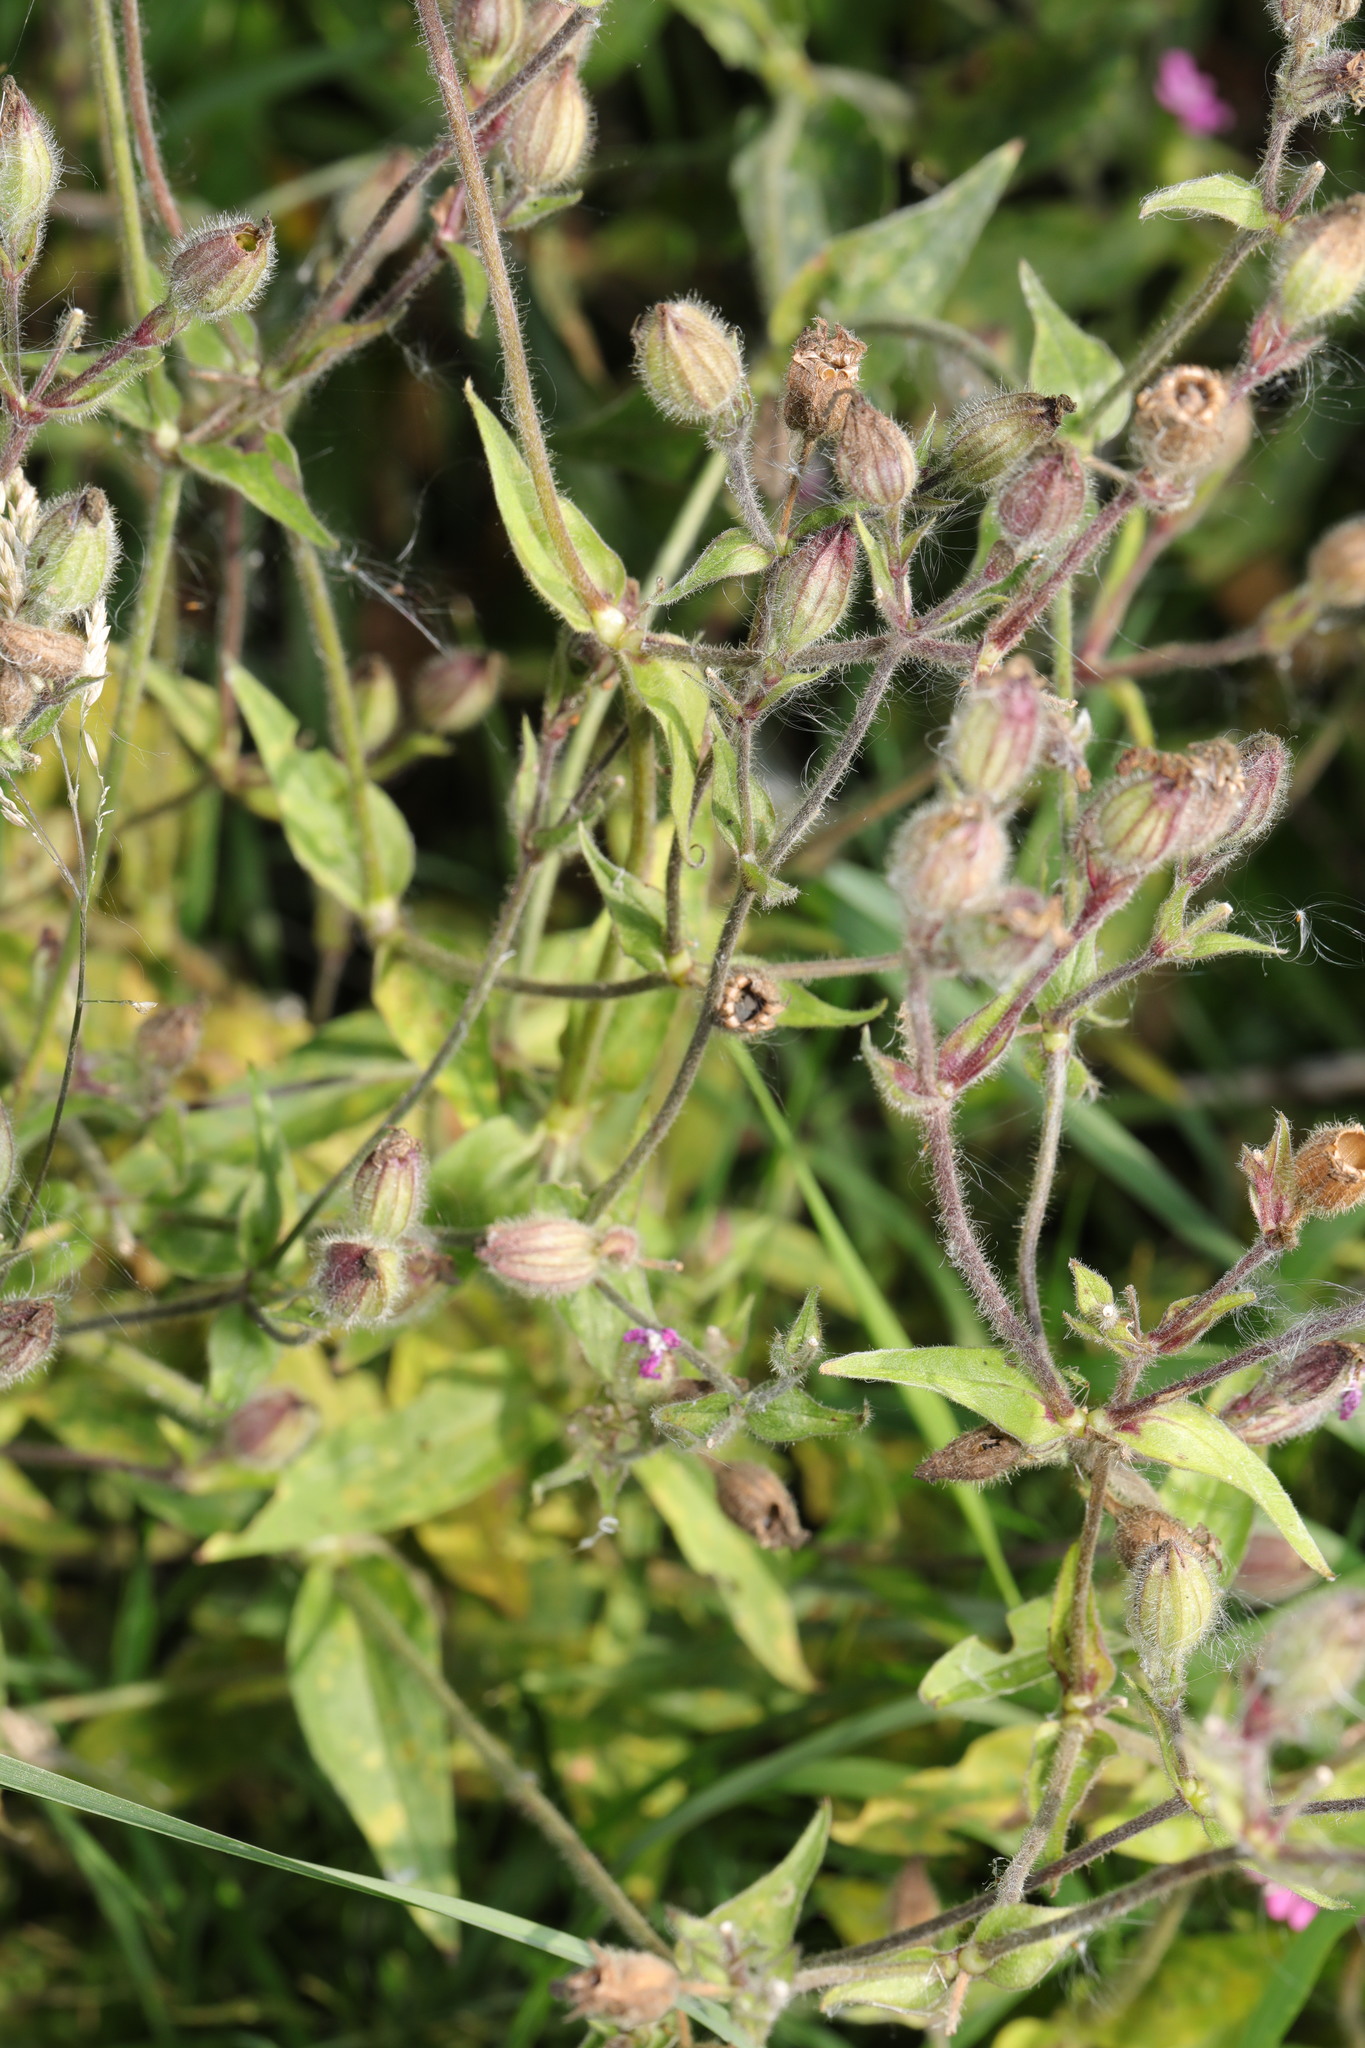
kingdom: Plantae
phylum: Tracheophyta
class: Magnoliopsida
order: Caryophyllales
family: Caryophyllaceae
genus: Silene
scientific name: Silene dioica
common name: Red campion
